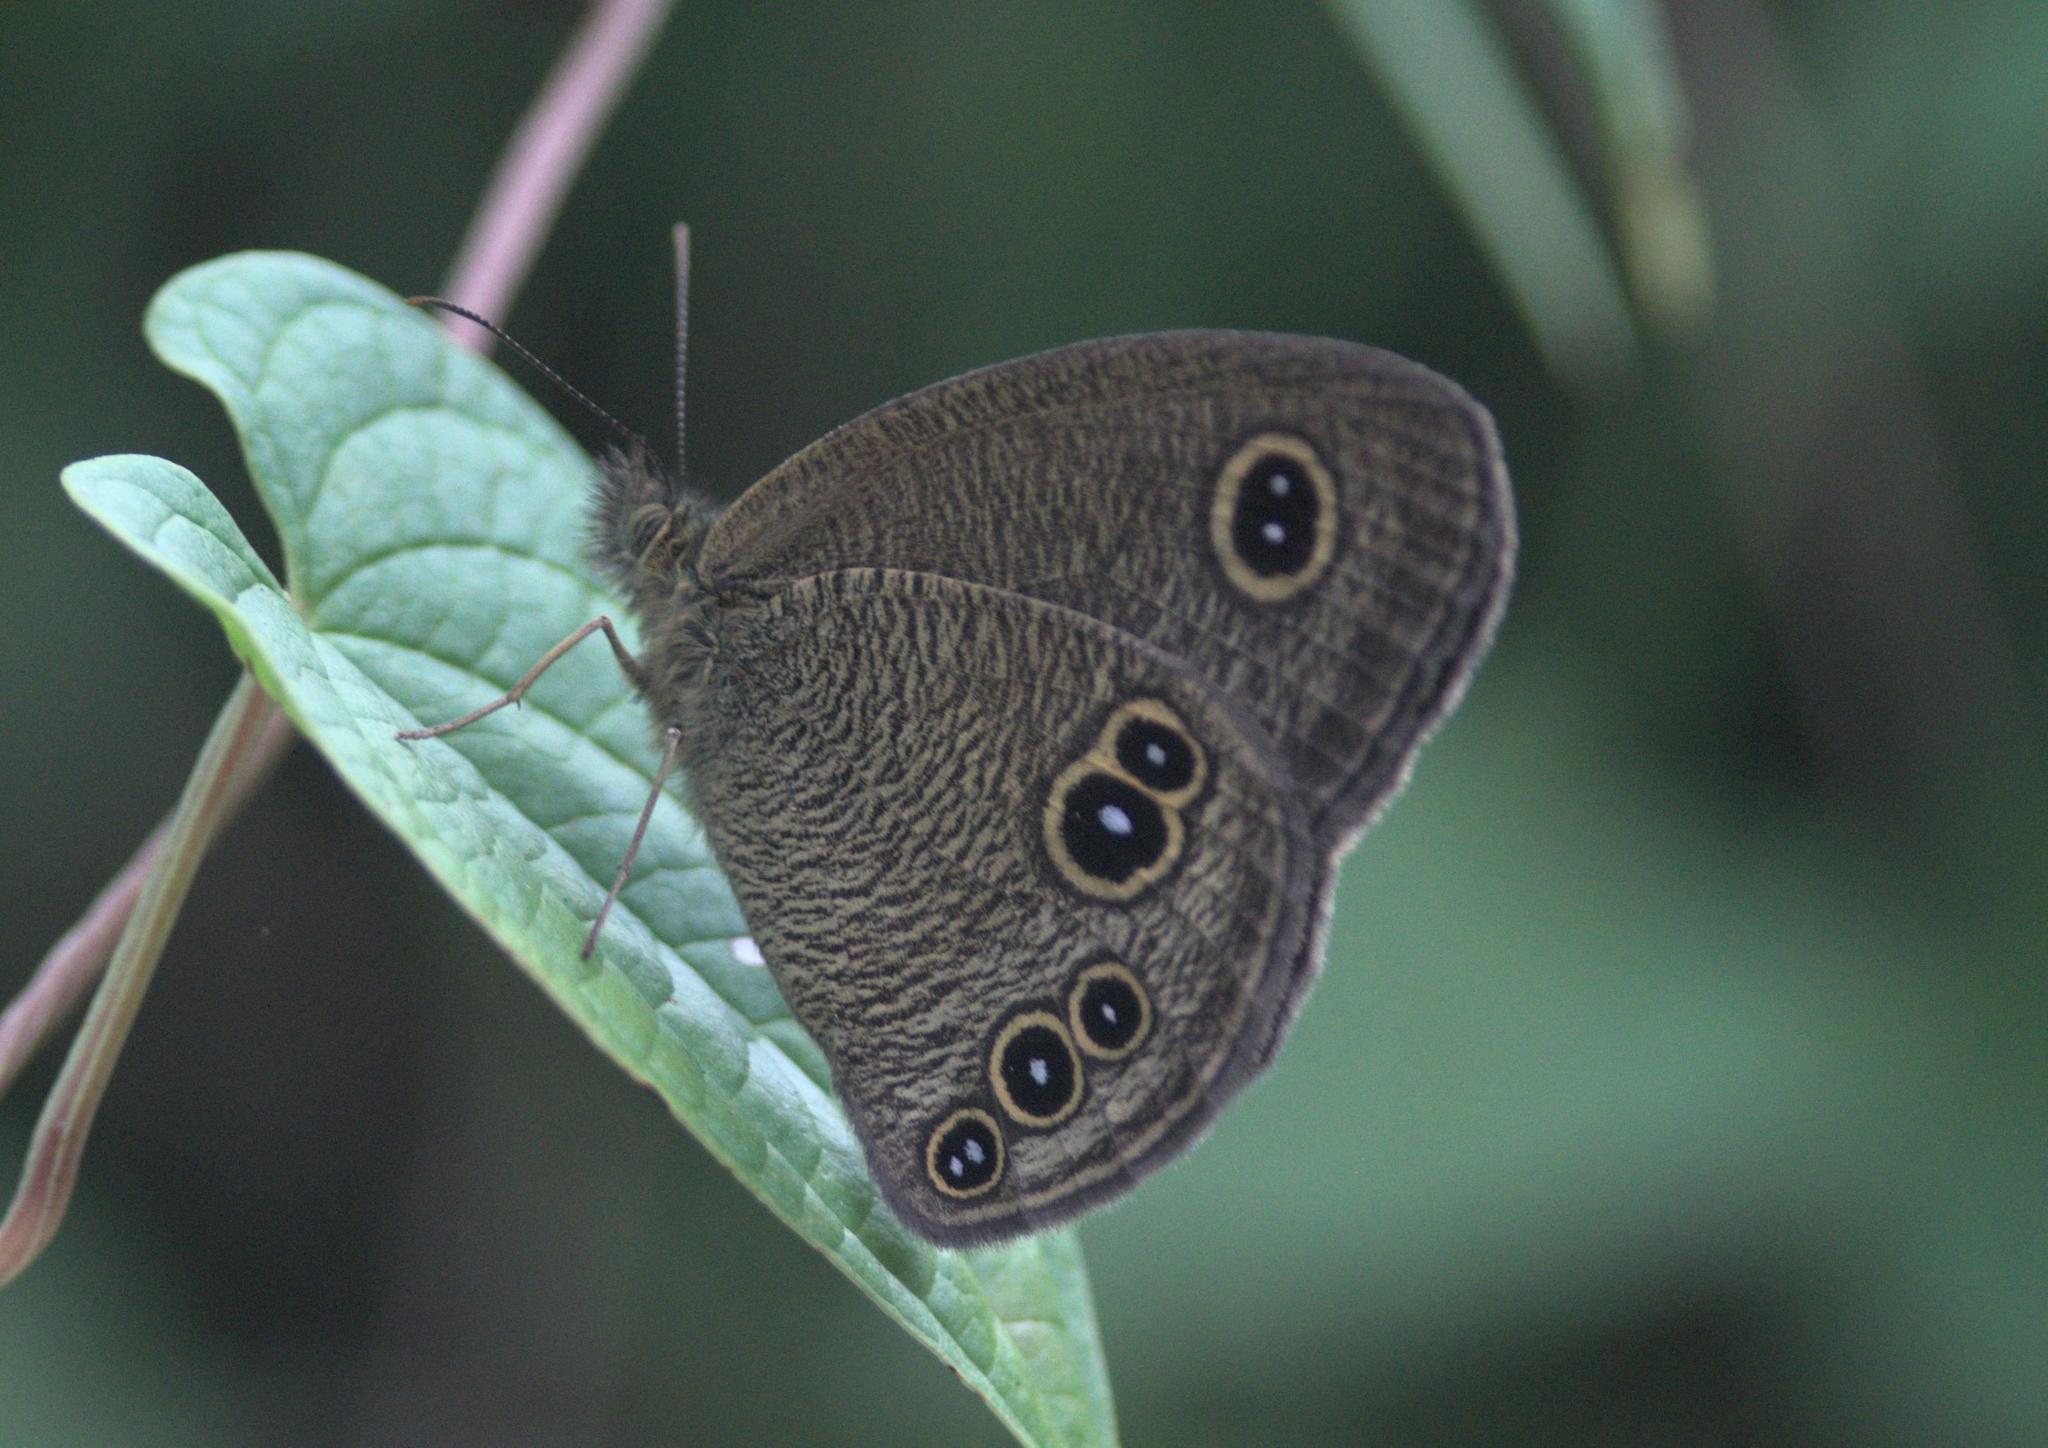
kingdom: Animalia
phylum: Arthropoda
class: Insecta
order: Lepidoptera
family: Nymphalidae
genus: Ypthima
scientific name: Ypthima nikaea
